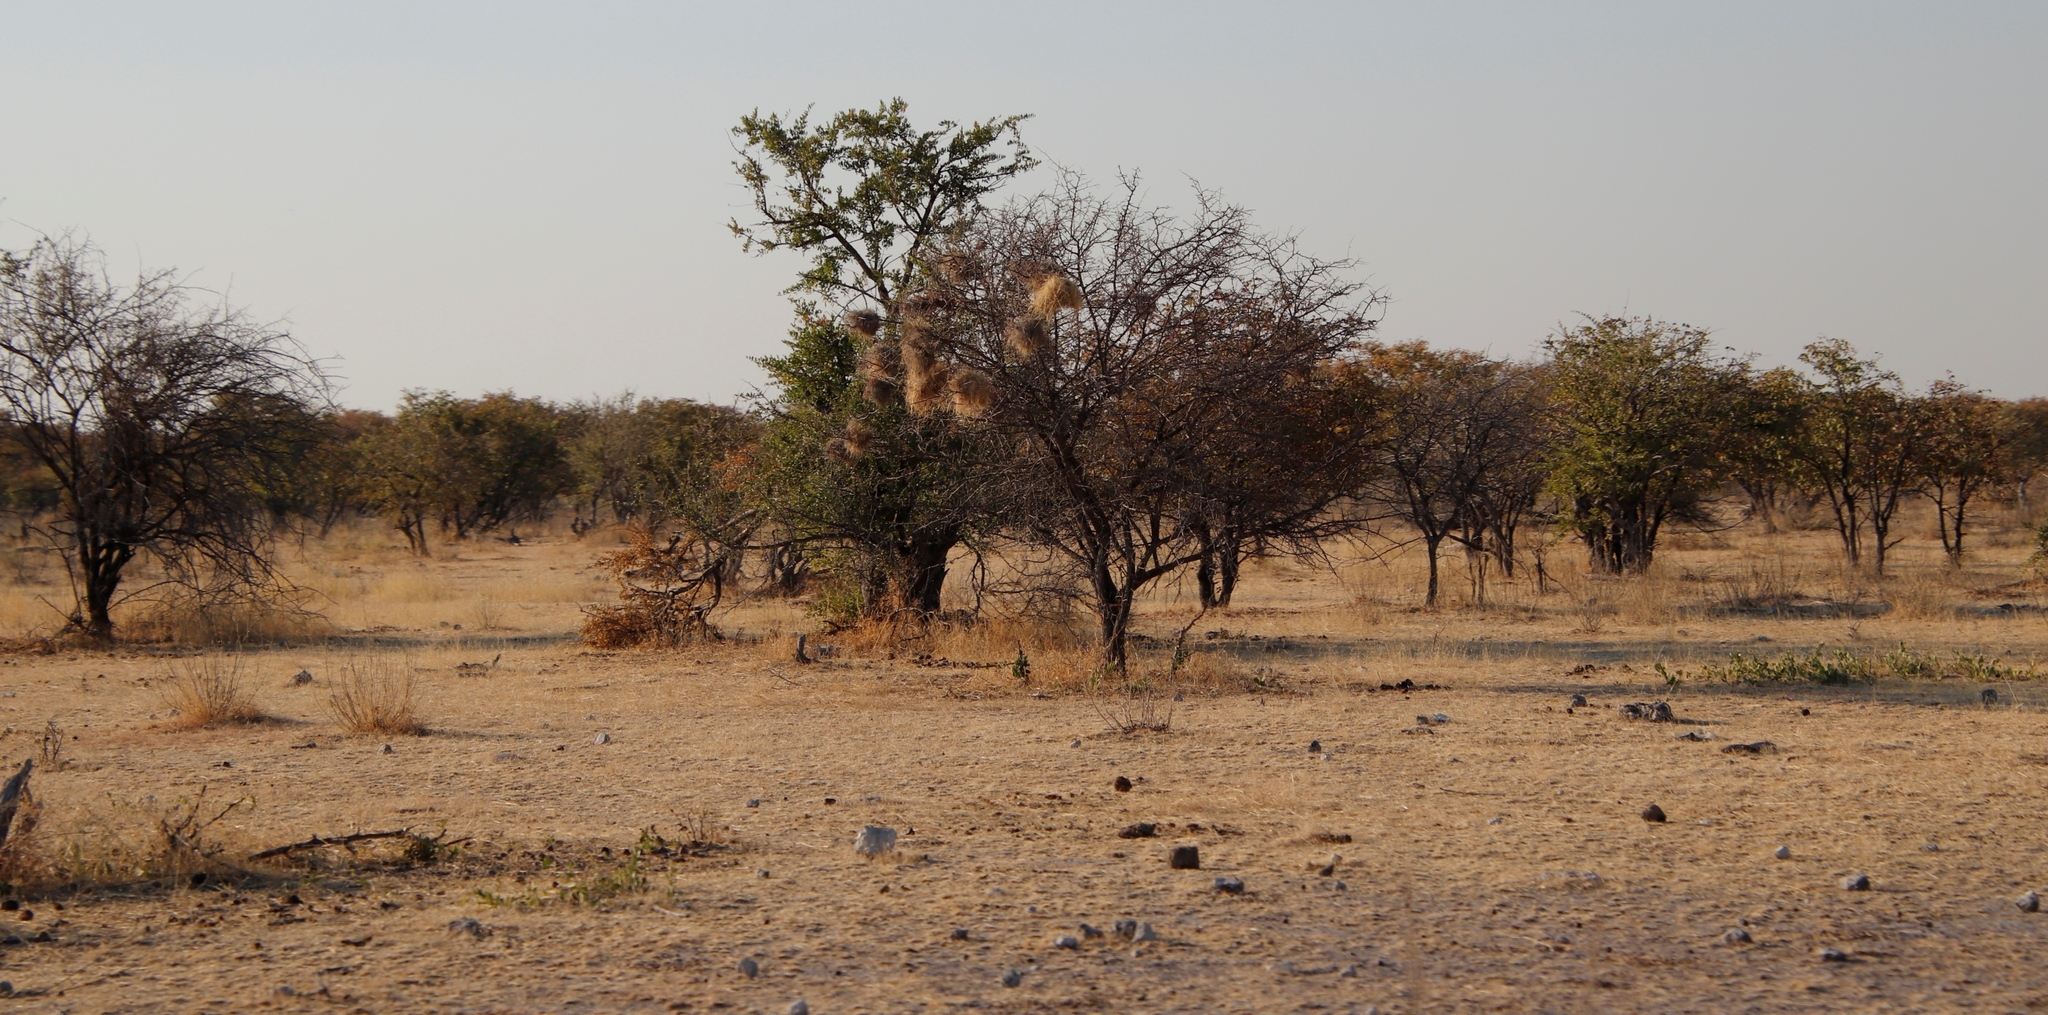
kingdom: Animalia
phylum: Chordata
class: Aves
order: Passeriformes
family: Passeridae
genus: Plocepasser
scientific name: Plocepasser mahali
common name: White-browed sparrow-weaver
